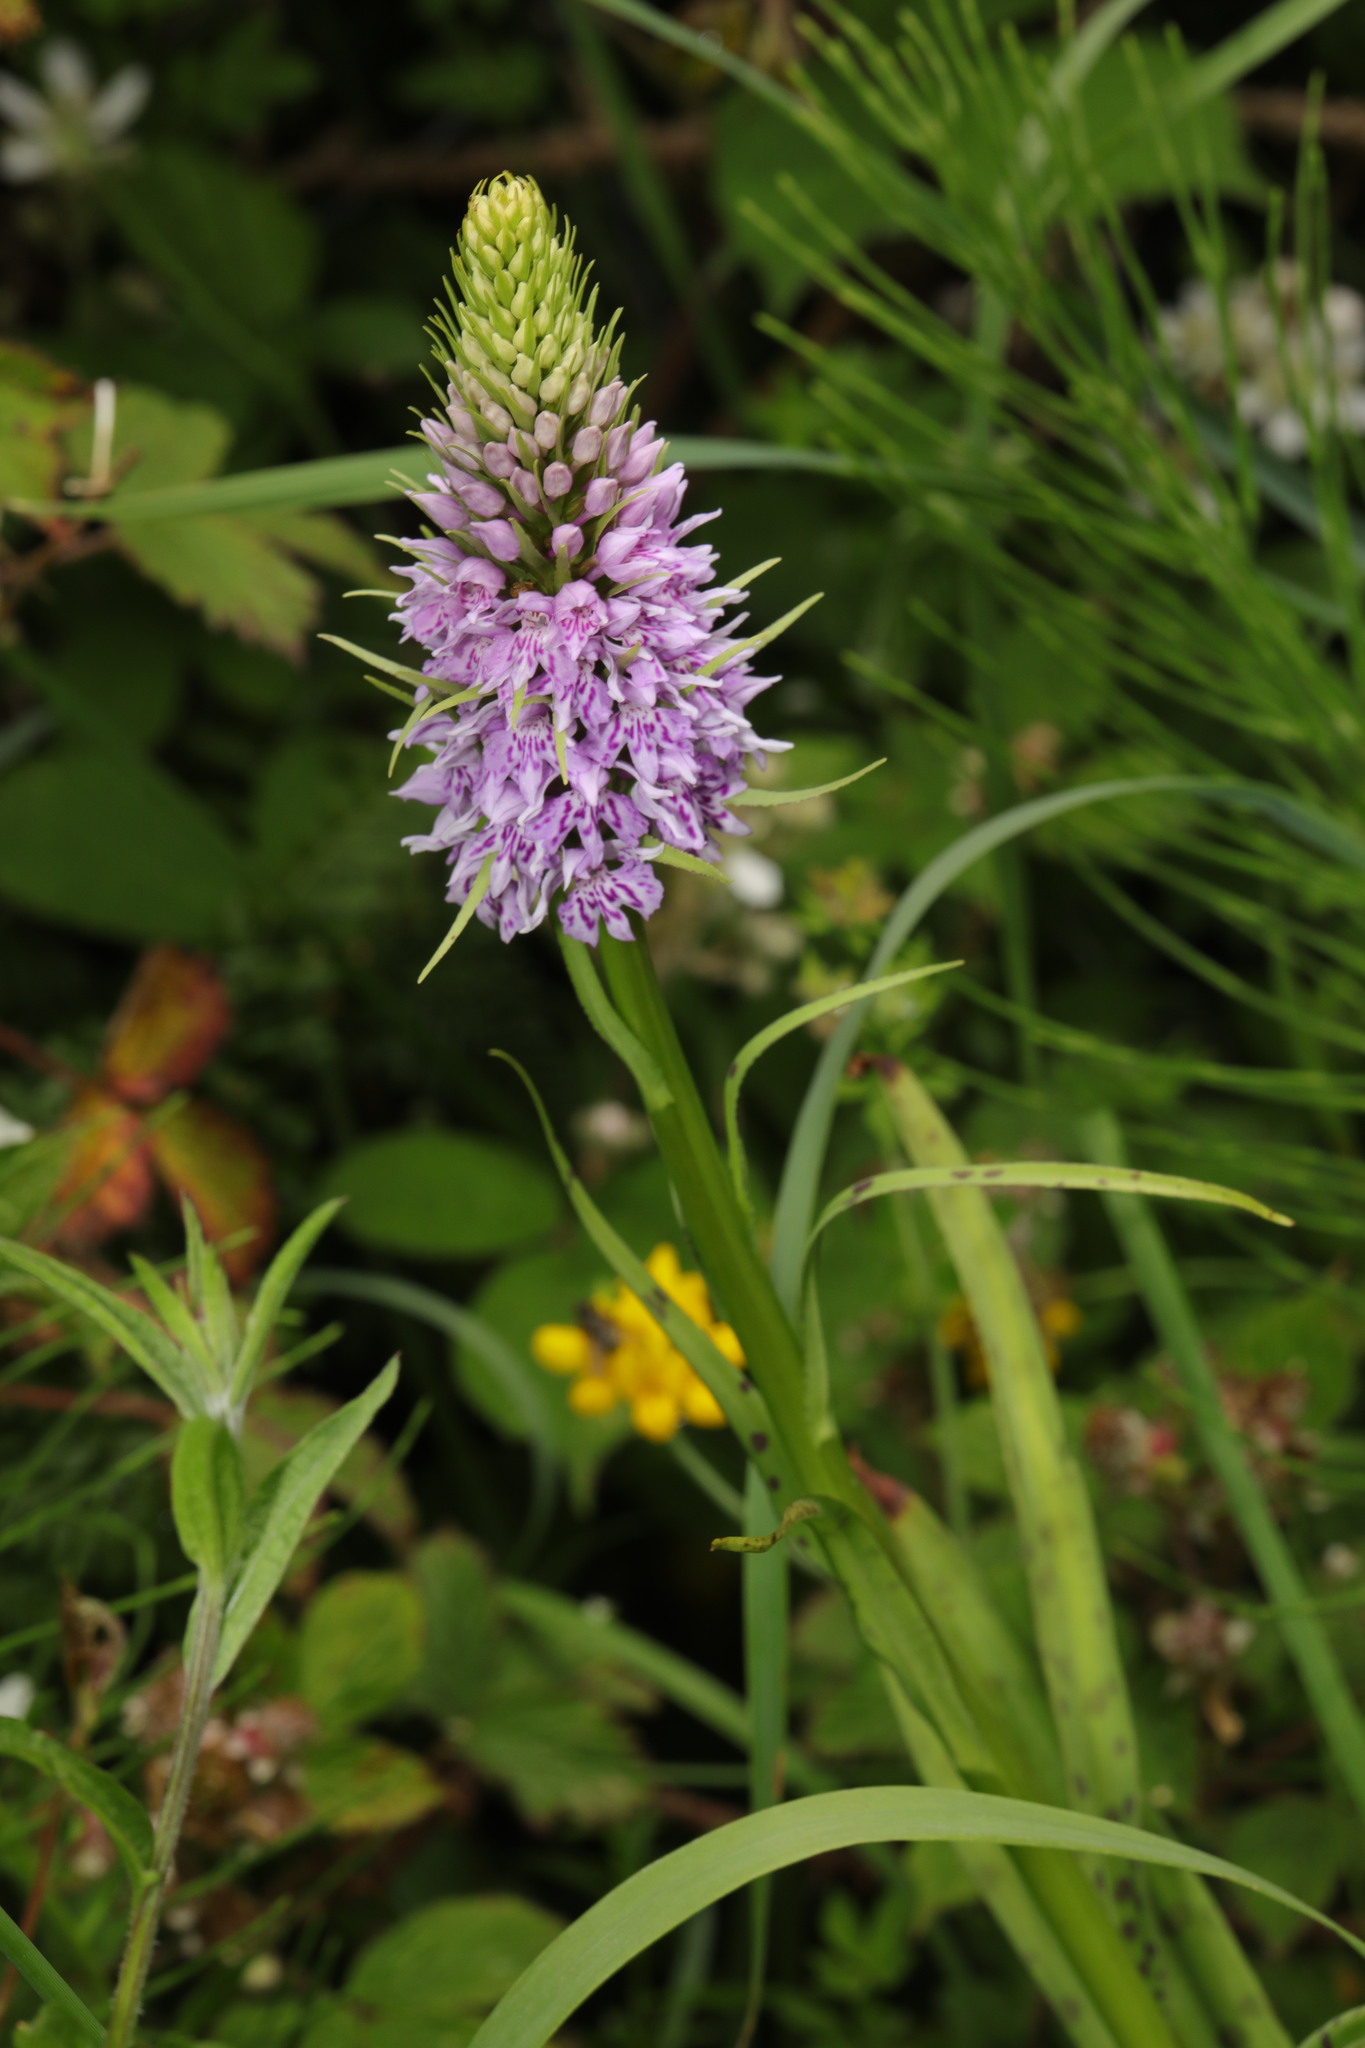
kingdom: Plantae
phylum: Tracheophyta
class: Liliopsida
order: Asparagales
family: Orchidaceae
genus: Dactylorhiza
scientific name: Dactylorhiza maculata
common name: Heath spotted-orchid
